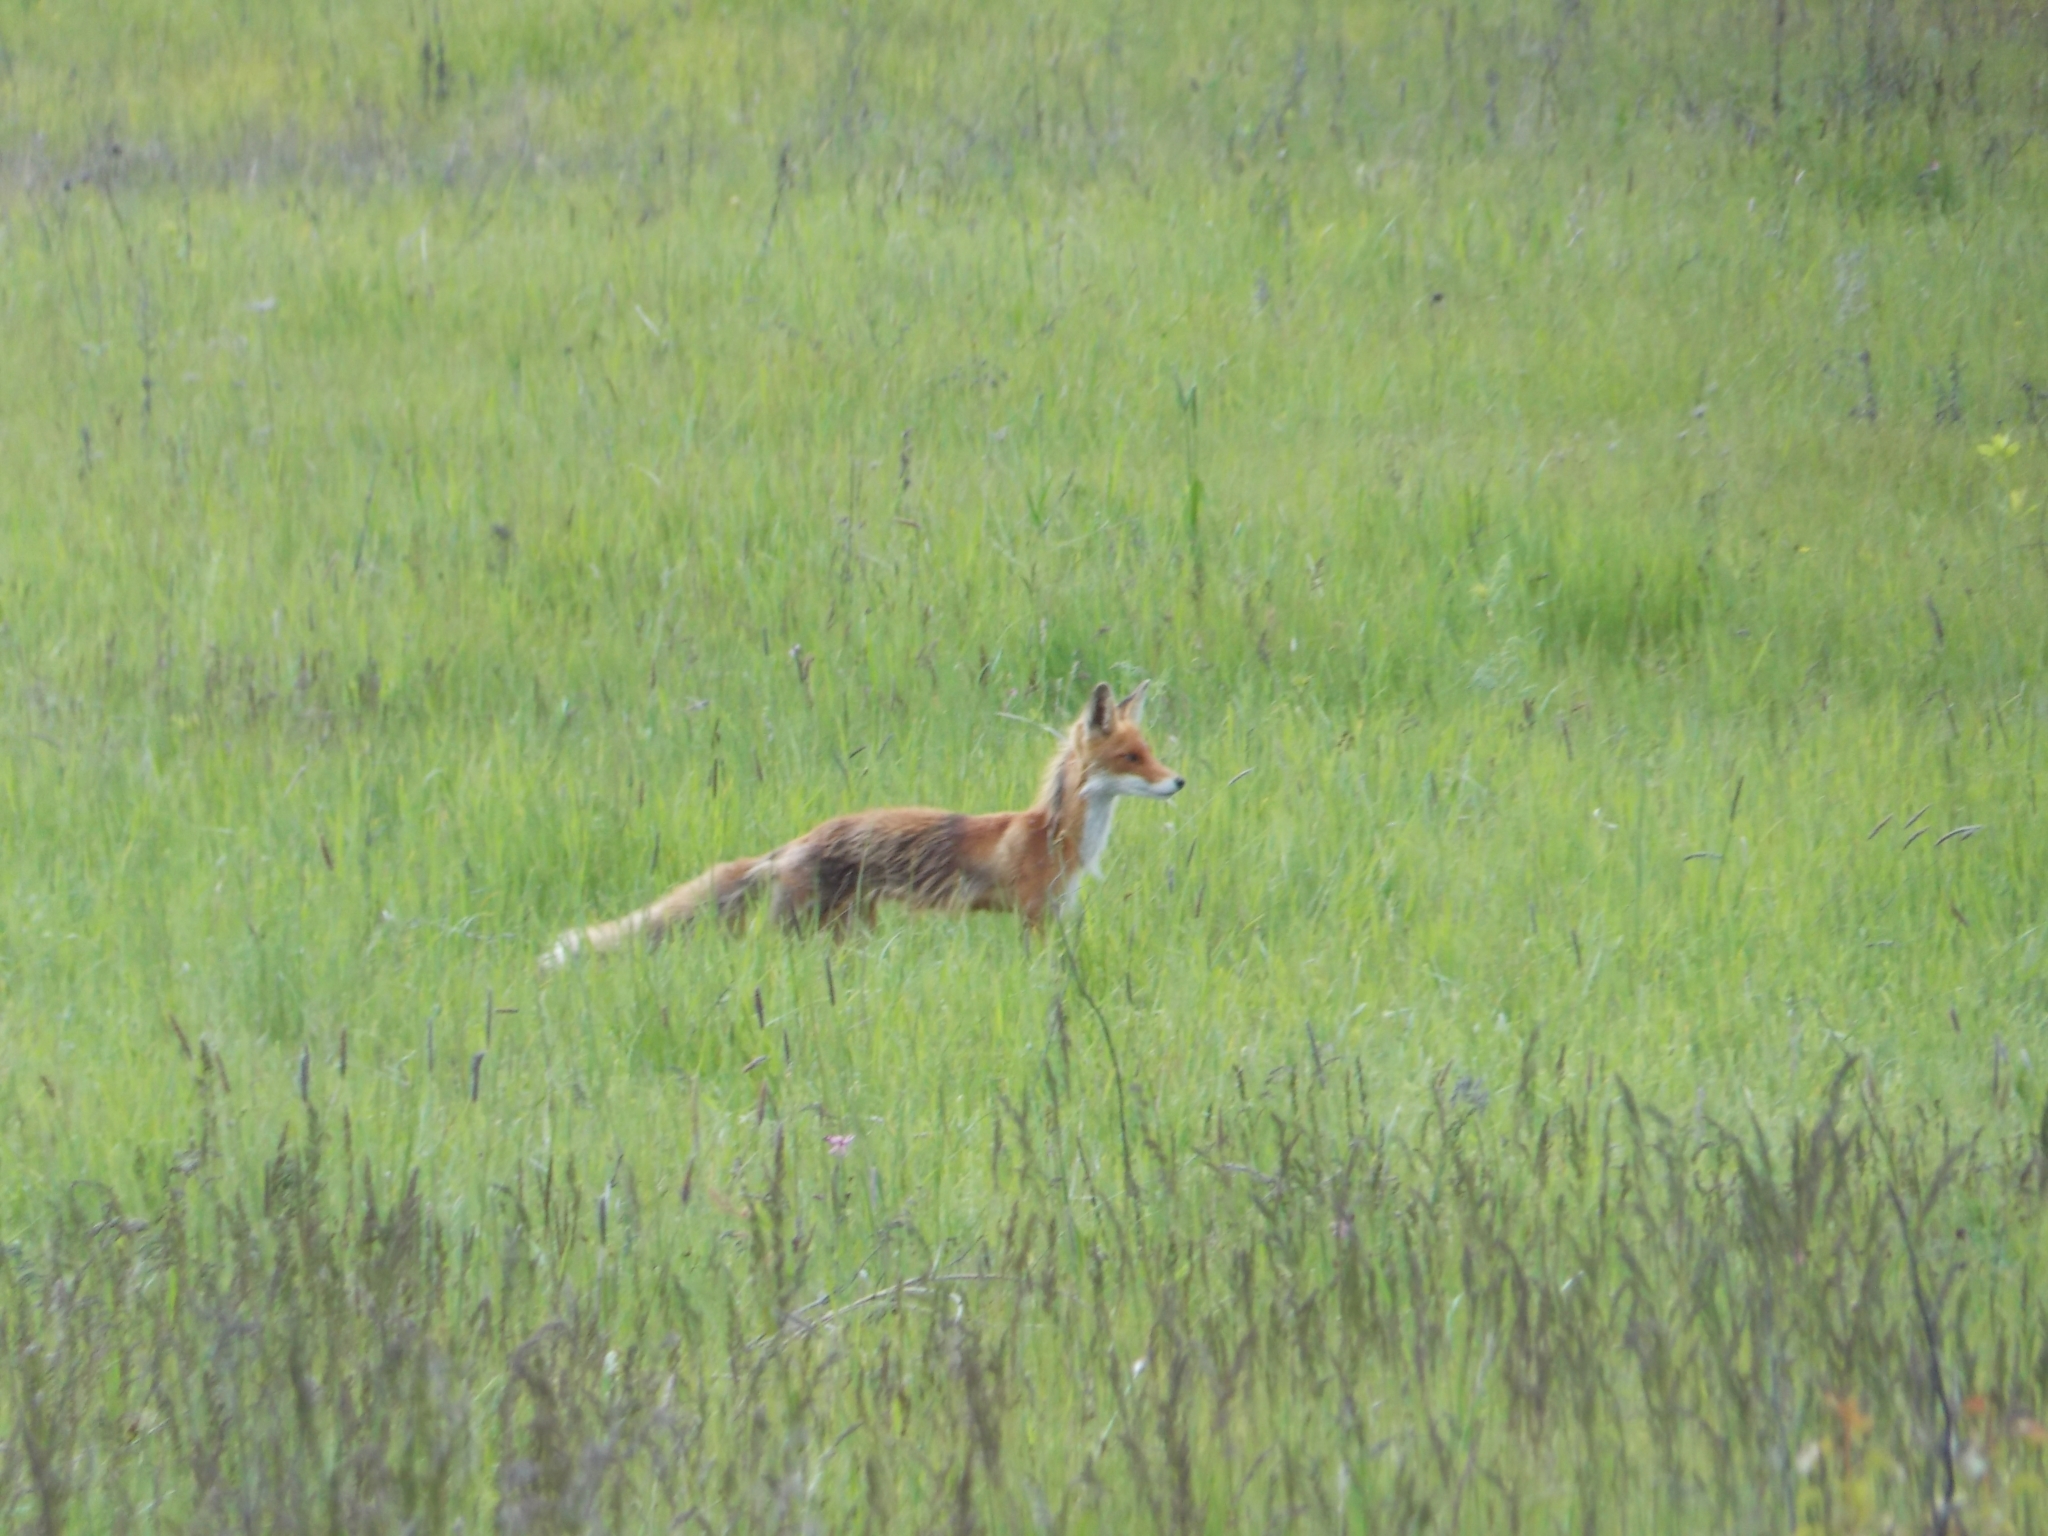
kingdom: Animalia
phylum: Chordata
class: Mammalia
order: Carnivora
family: Canidae
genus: Vulpes
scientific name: Vulpes vulpes
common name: Red fox
